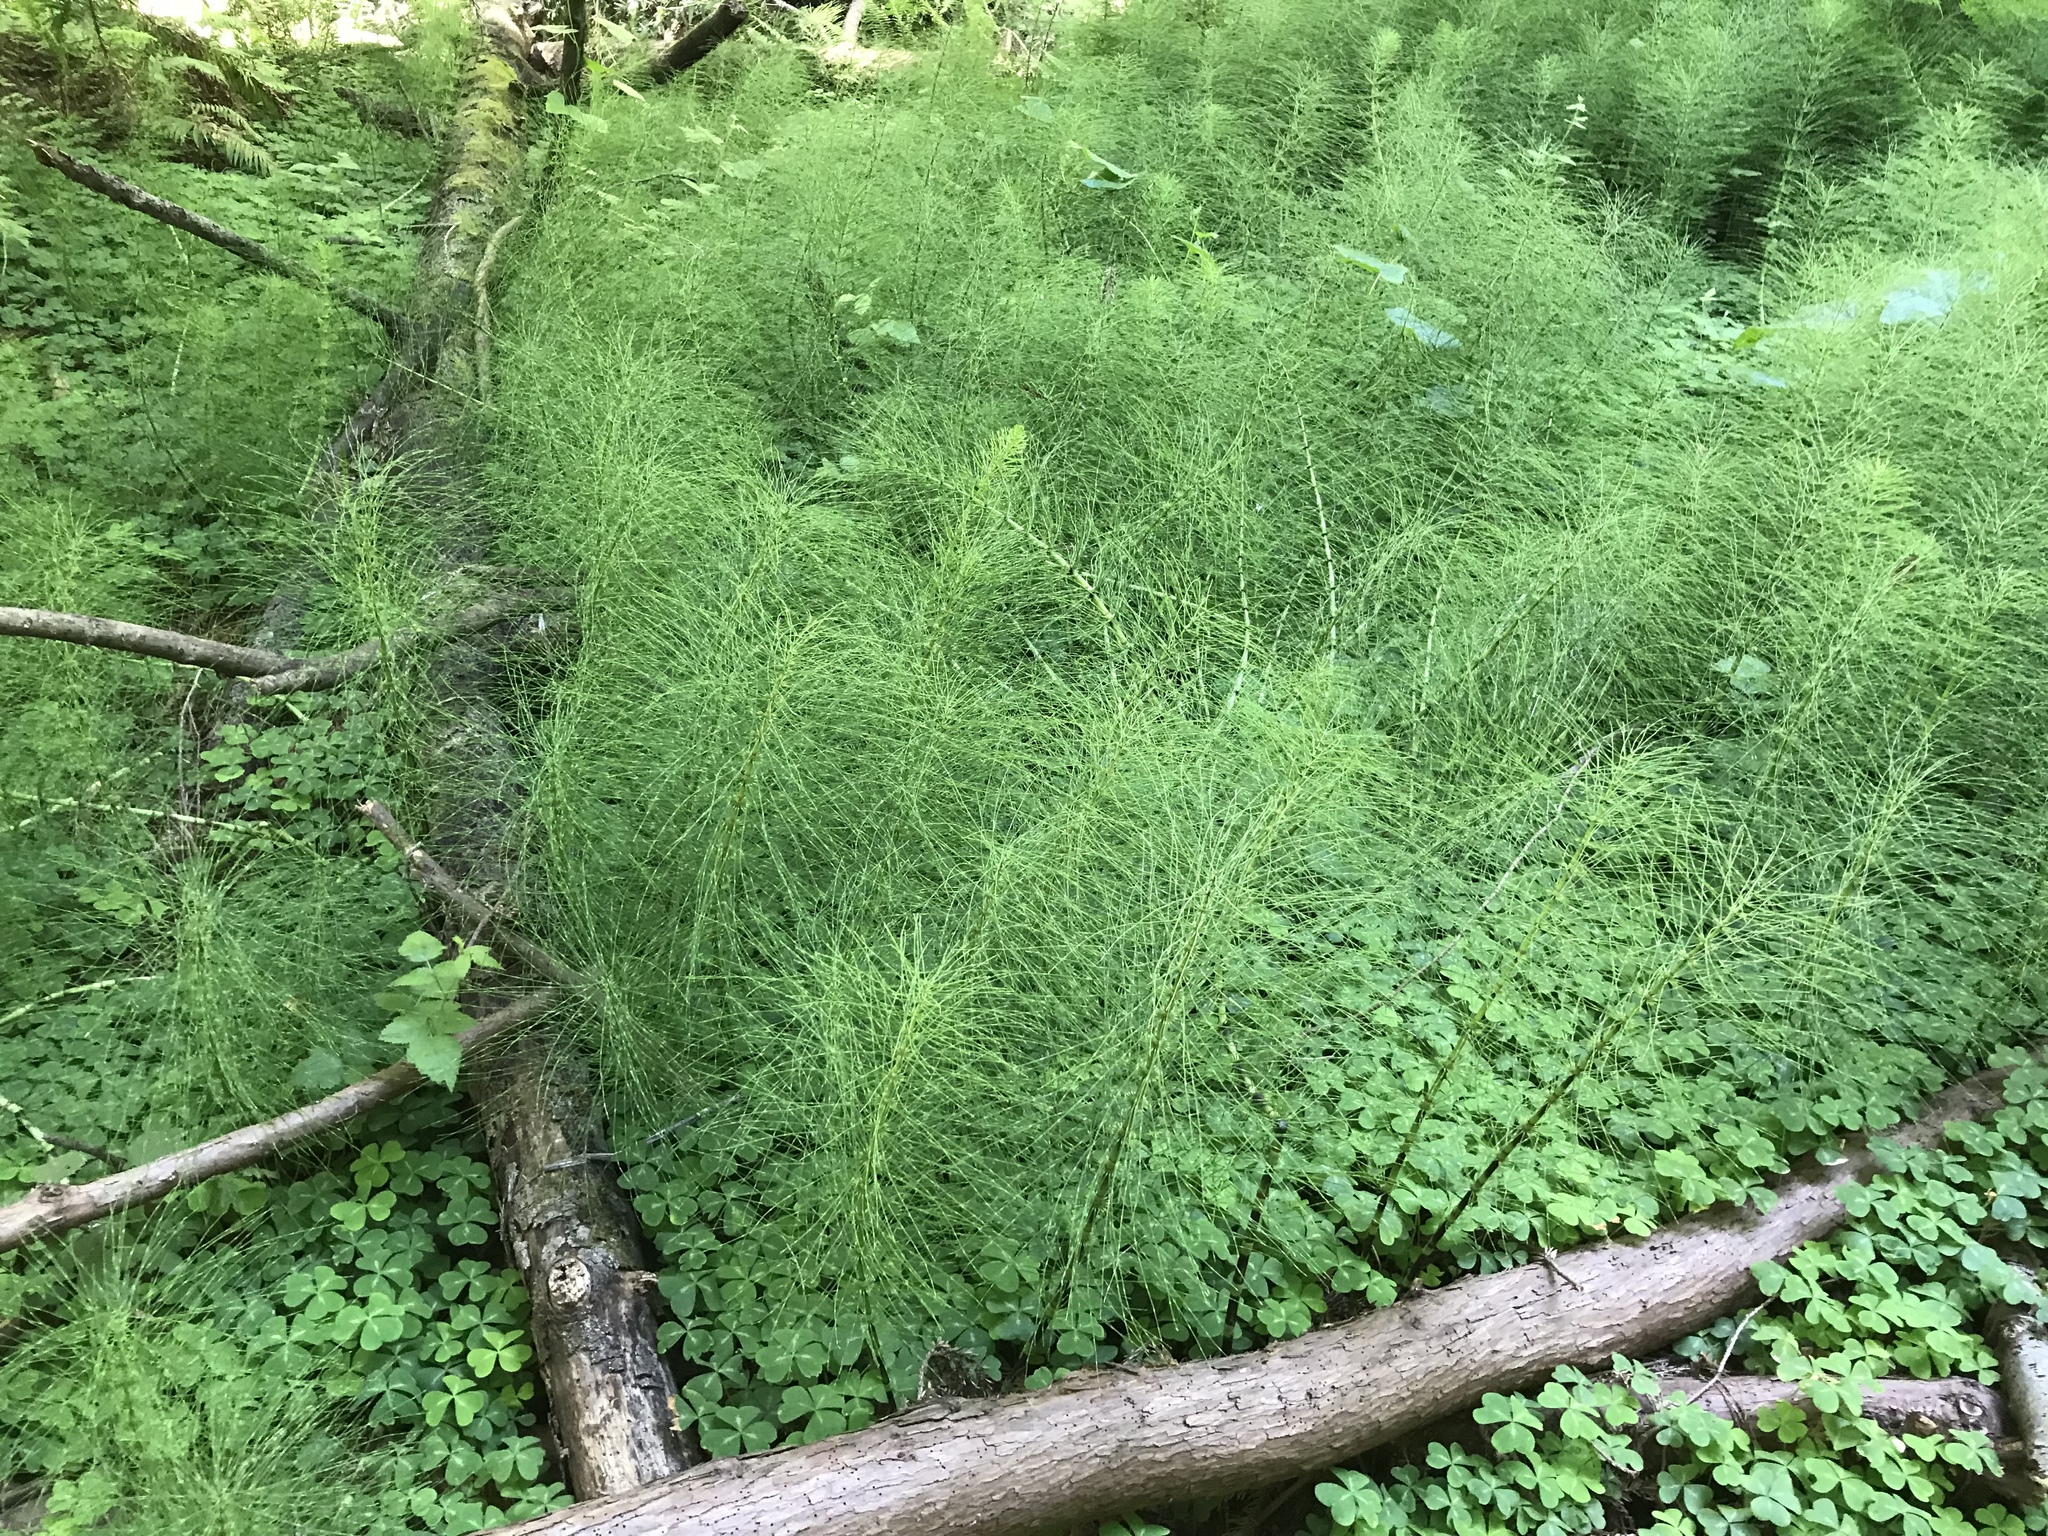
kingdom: Plantae
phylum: Tracheophyta
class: Polypodiopsida
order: Equisetales
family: Equisetaceae
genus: Equisetum
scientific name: Equisetum telmateia
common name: Great horsetail
